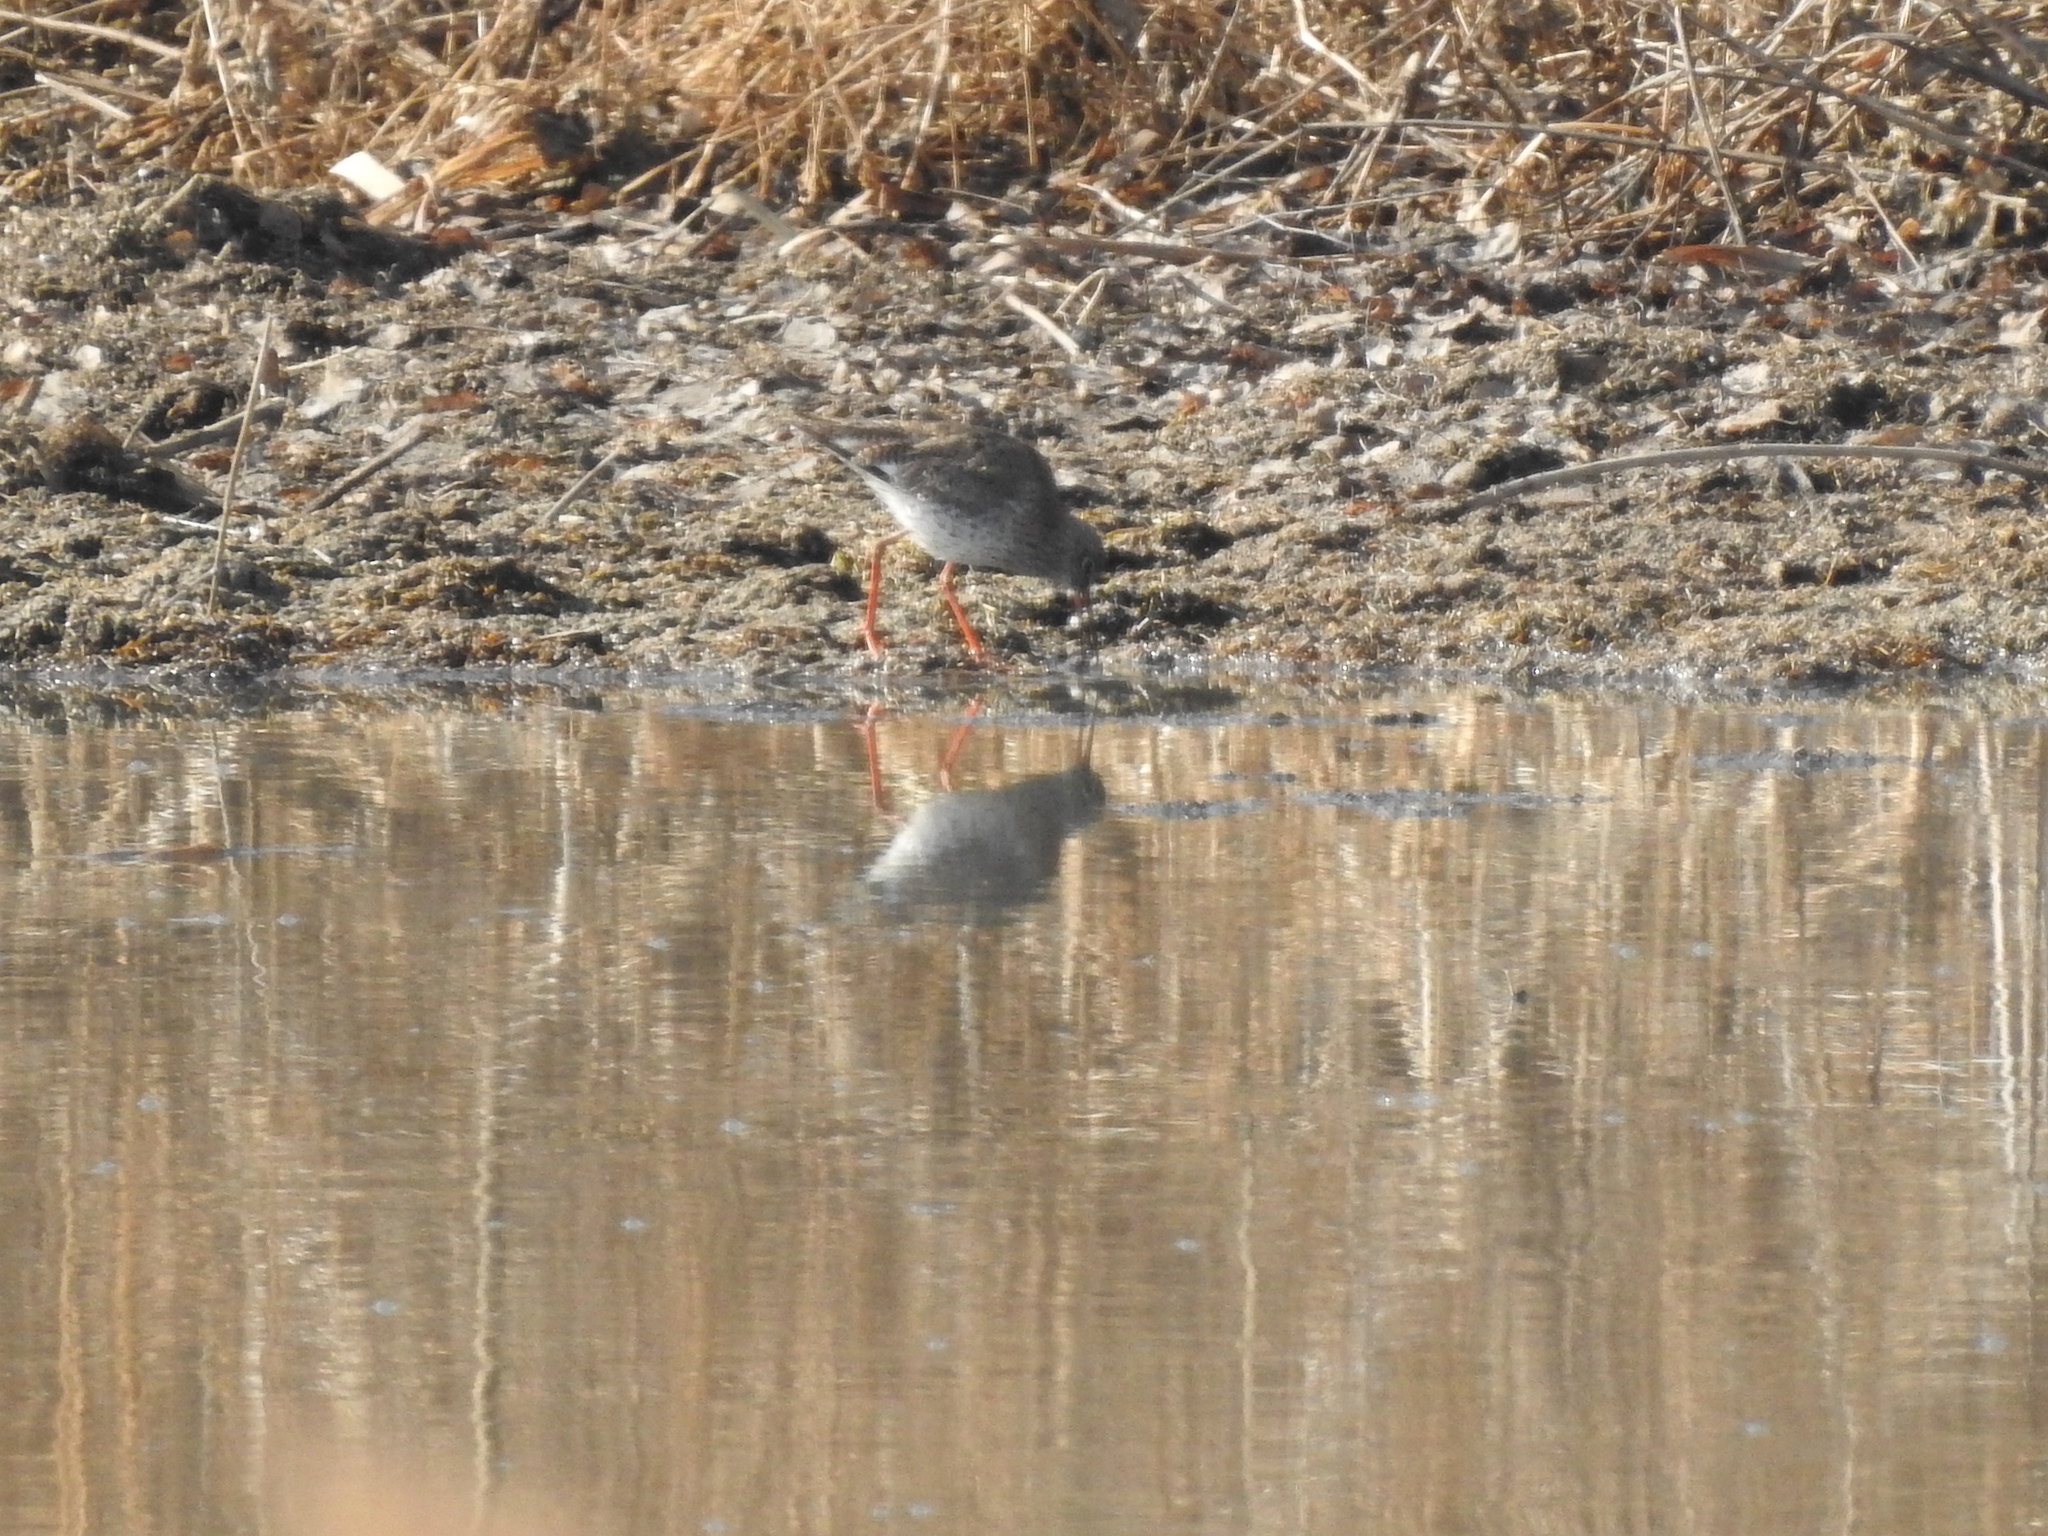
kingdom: Animalia
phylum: Chordata
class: Aves
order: Charadriiformes
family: Scolopacidae
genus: Tringa
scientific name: Tringa totanus
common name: Common redshank
